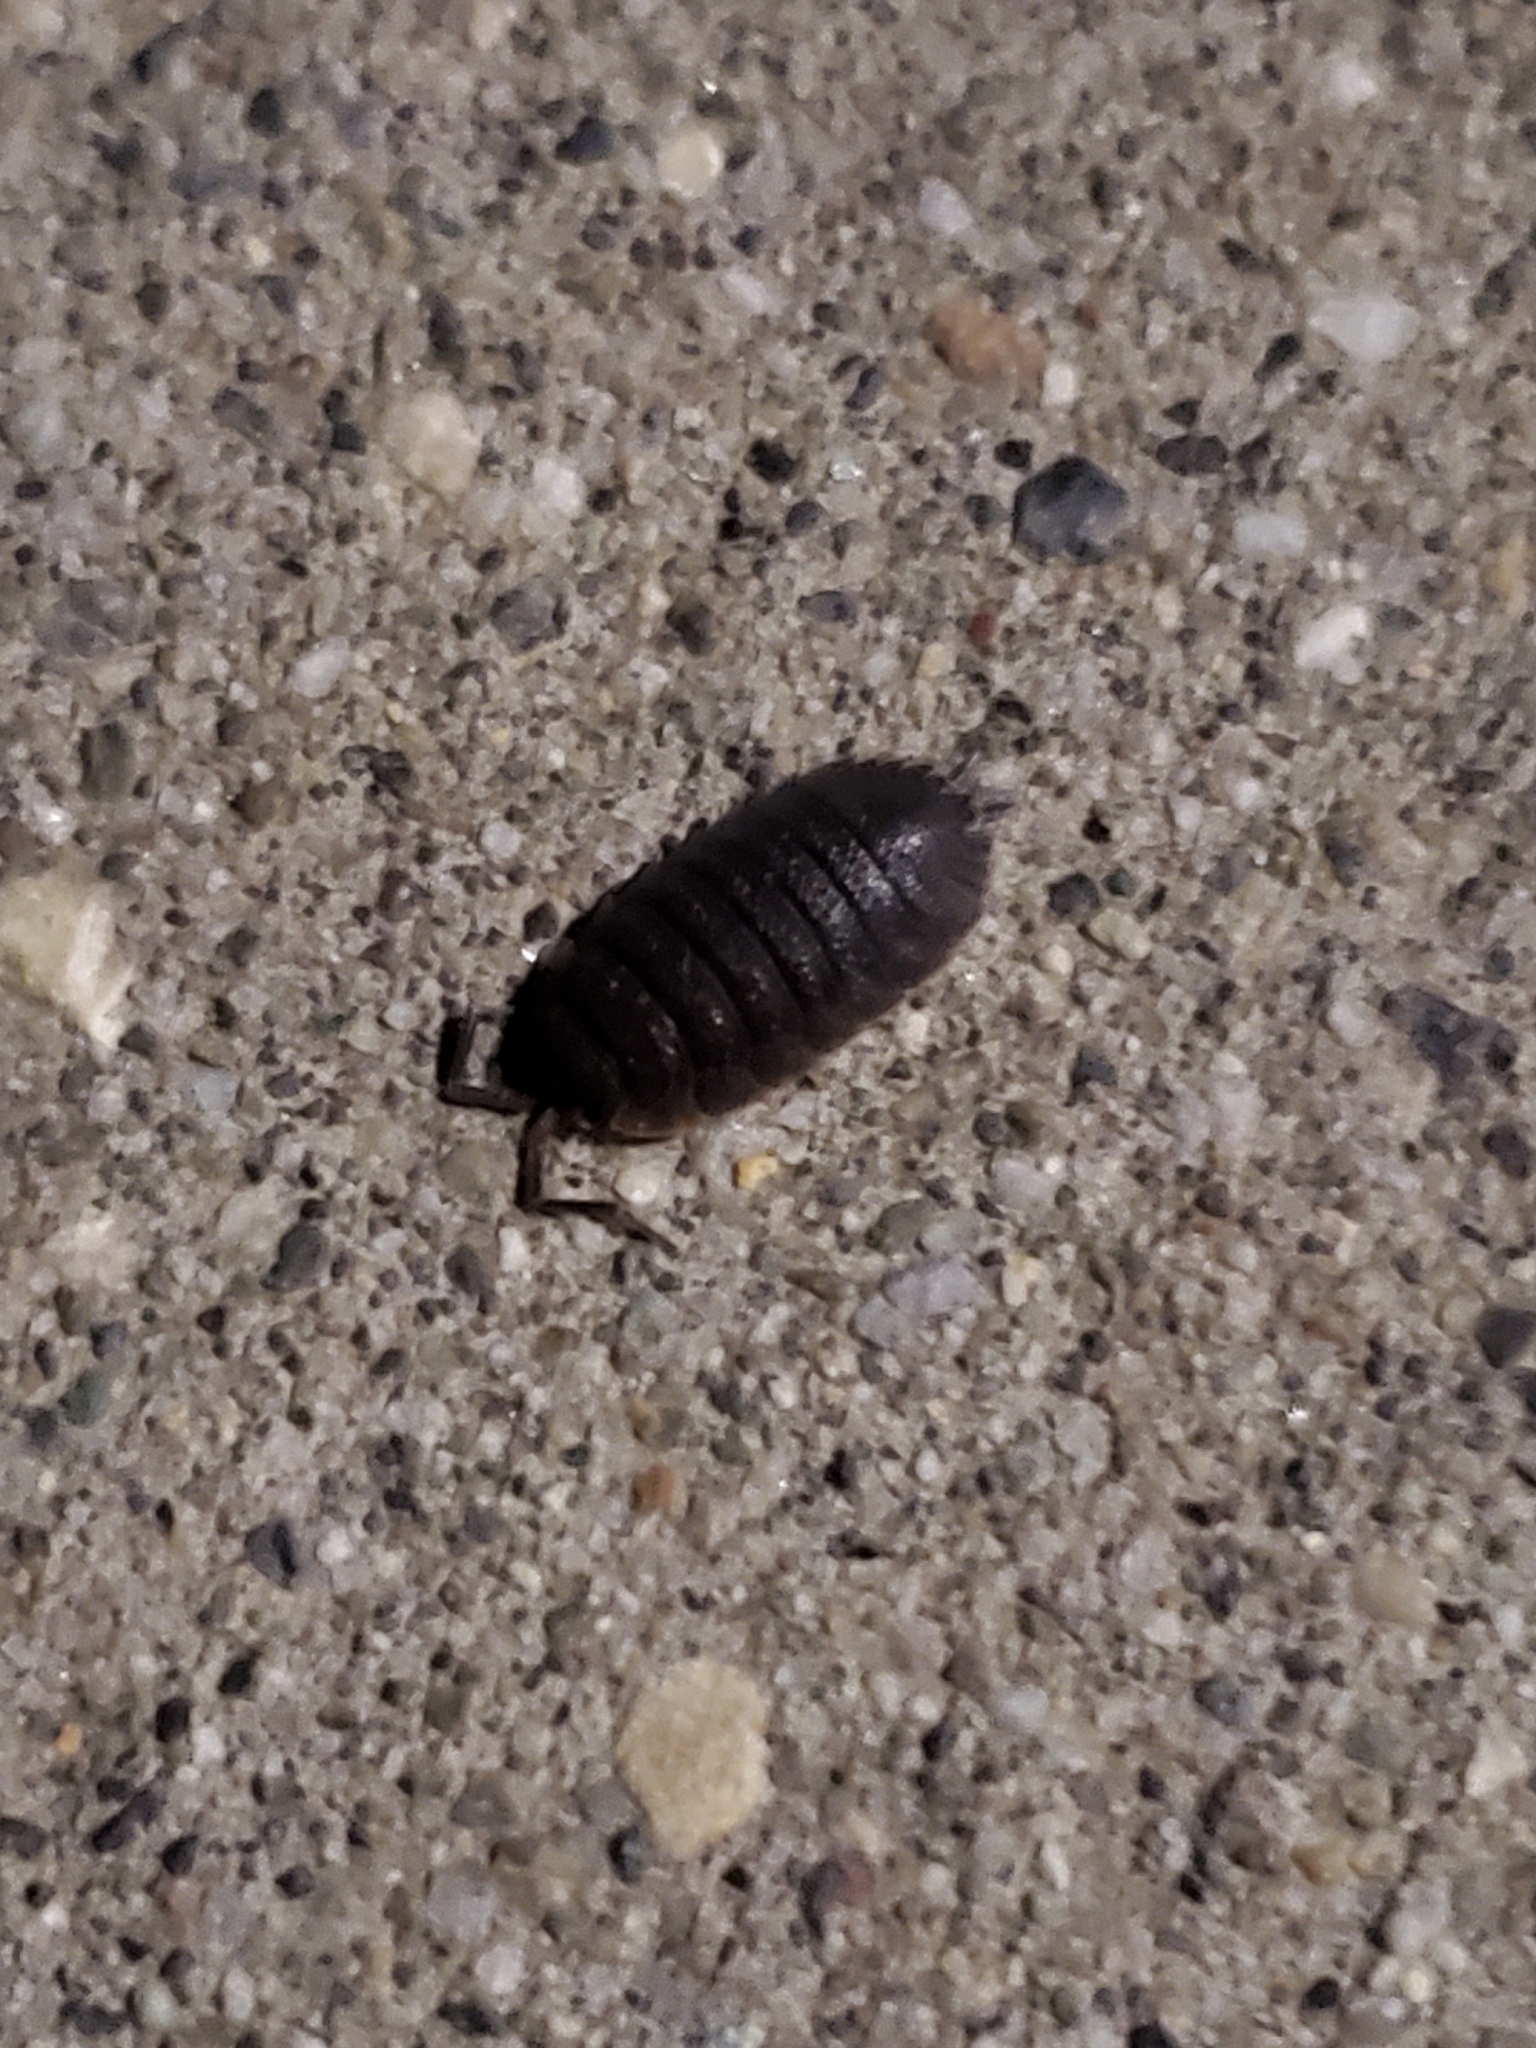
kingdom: Animalia
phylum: Arthropoda
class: Malacostraca
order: Isopoda
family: Porcellionidae
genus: Porcellio
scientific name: Porcellio scaber
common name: Common rough woodlouse
